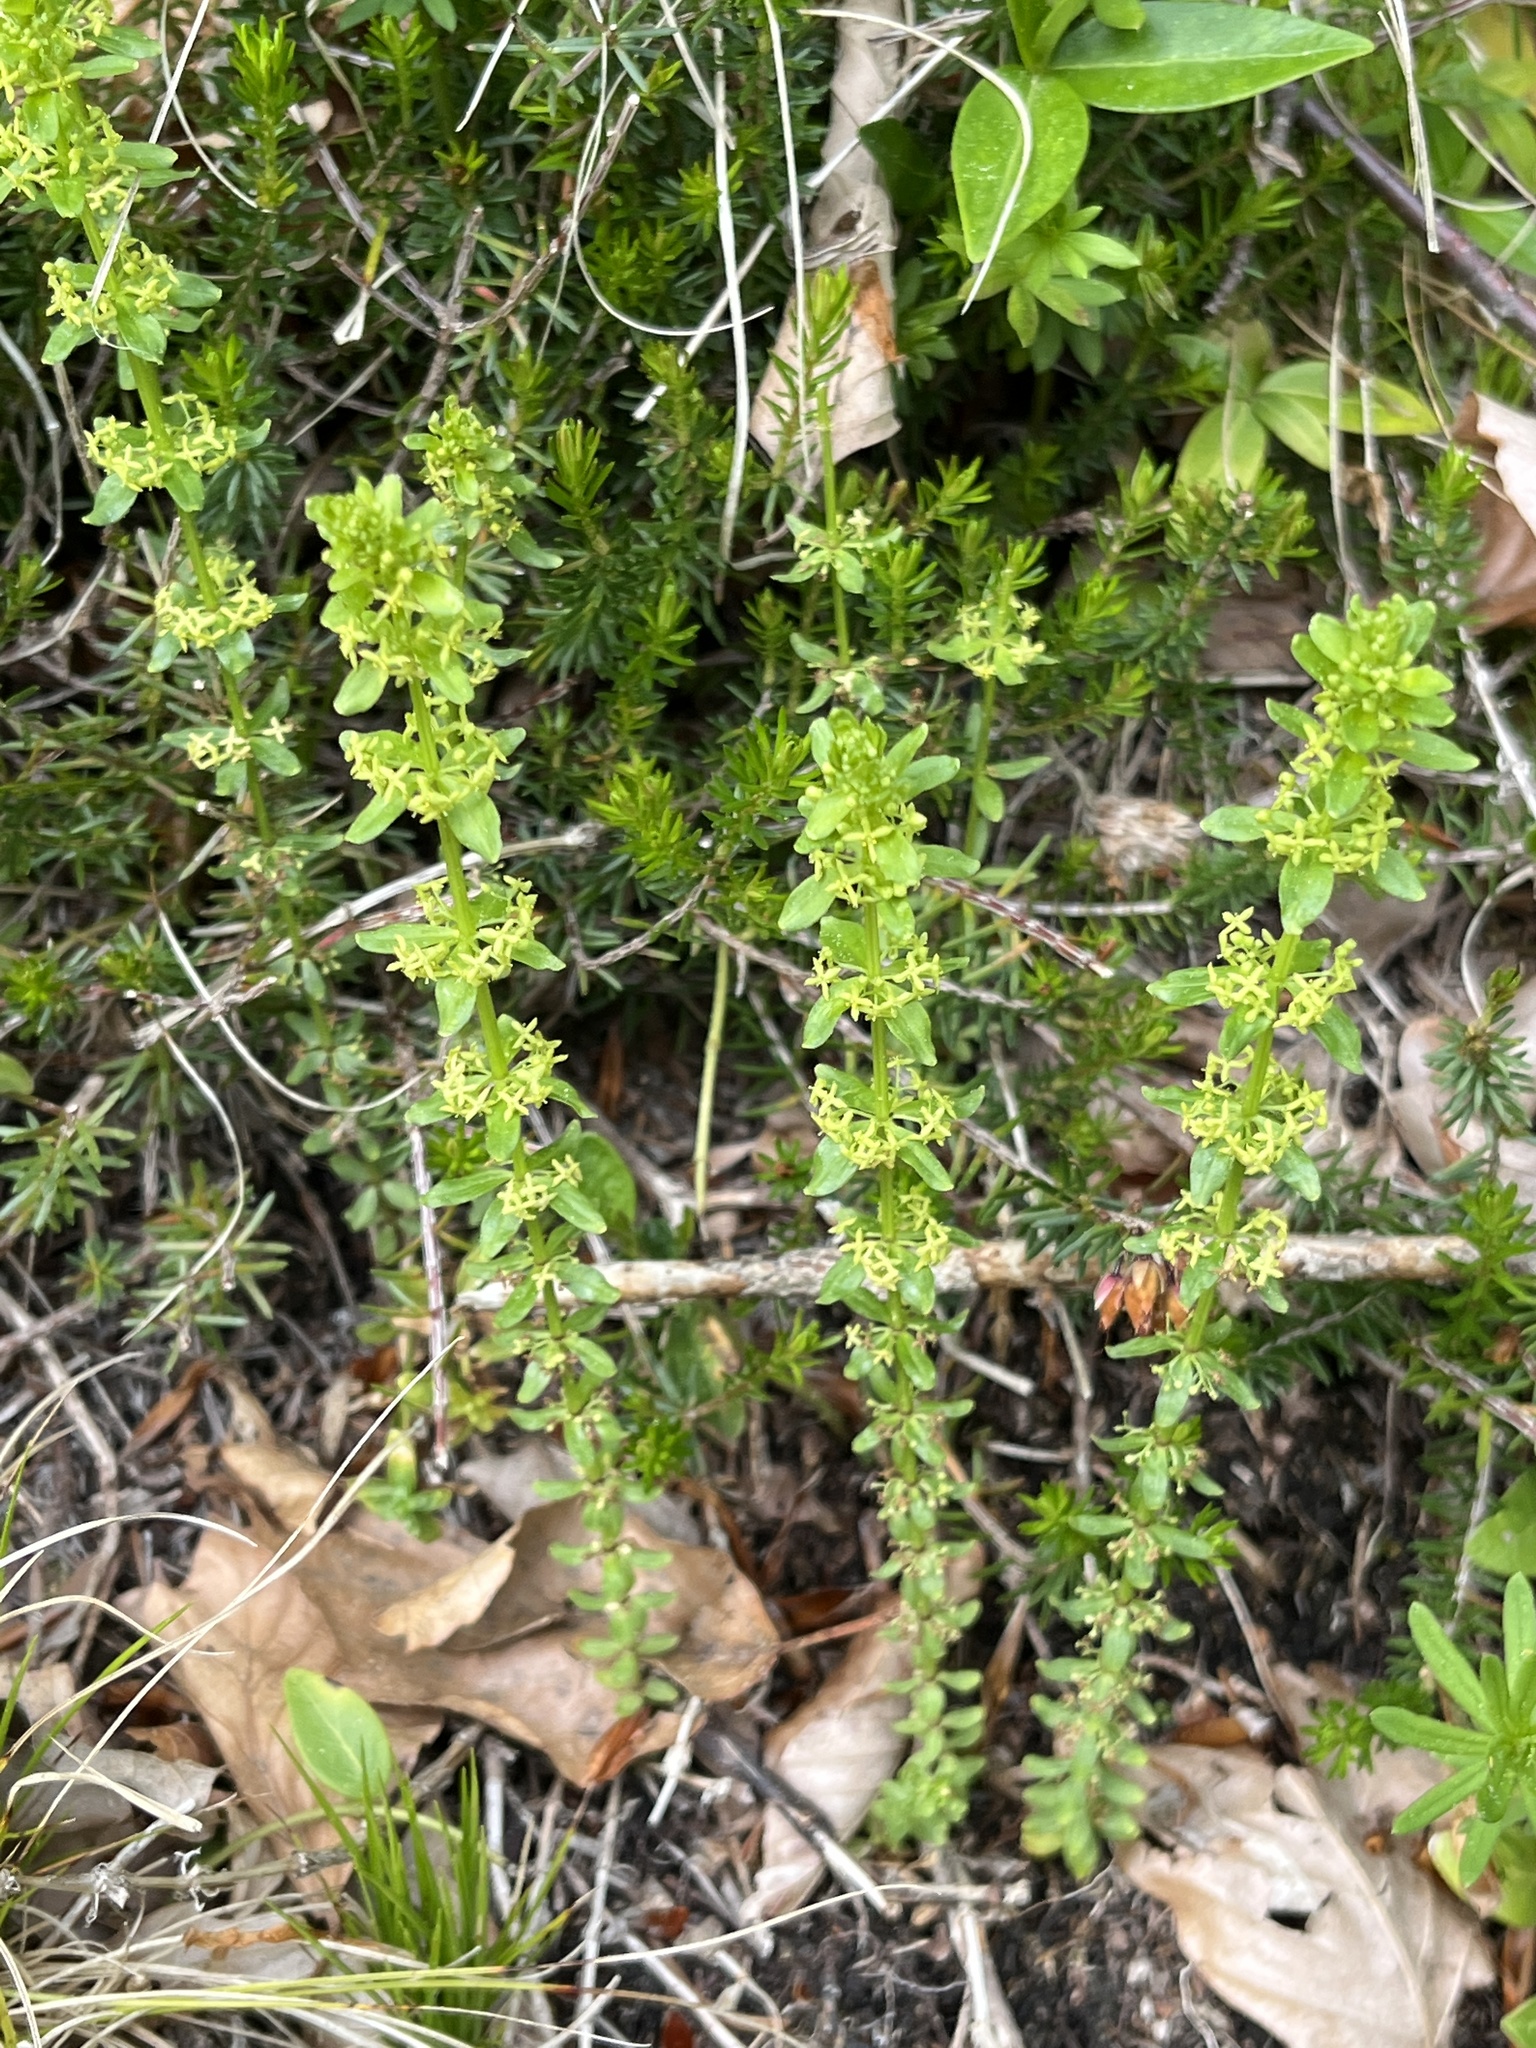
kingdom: Plantae
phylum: Tracheophyta
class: Magnoliopsida
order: Gentianales
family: Rubiaceae
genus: Cruciata
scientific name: Cruciata glabra
